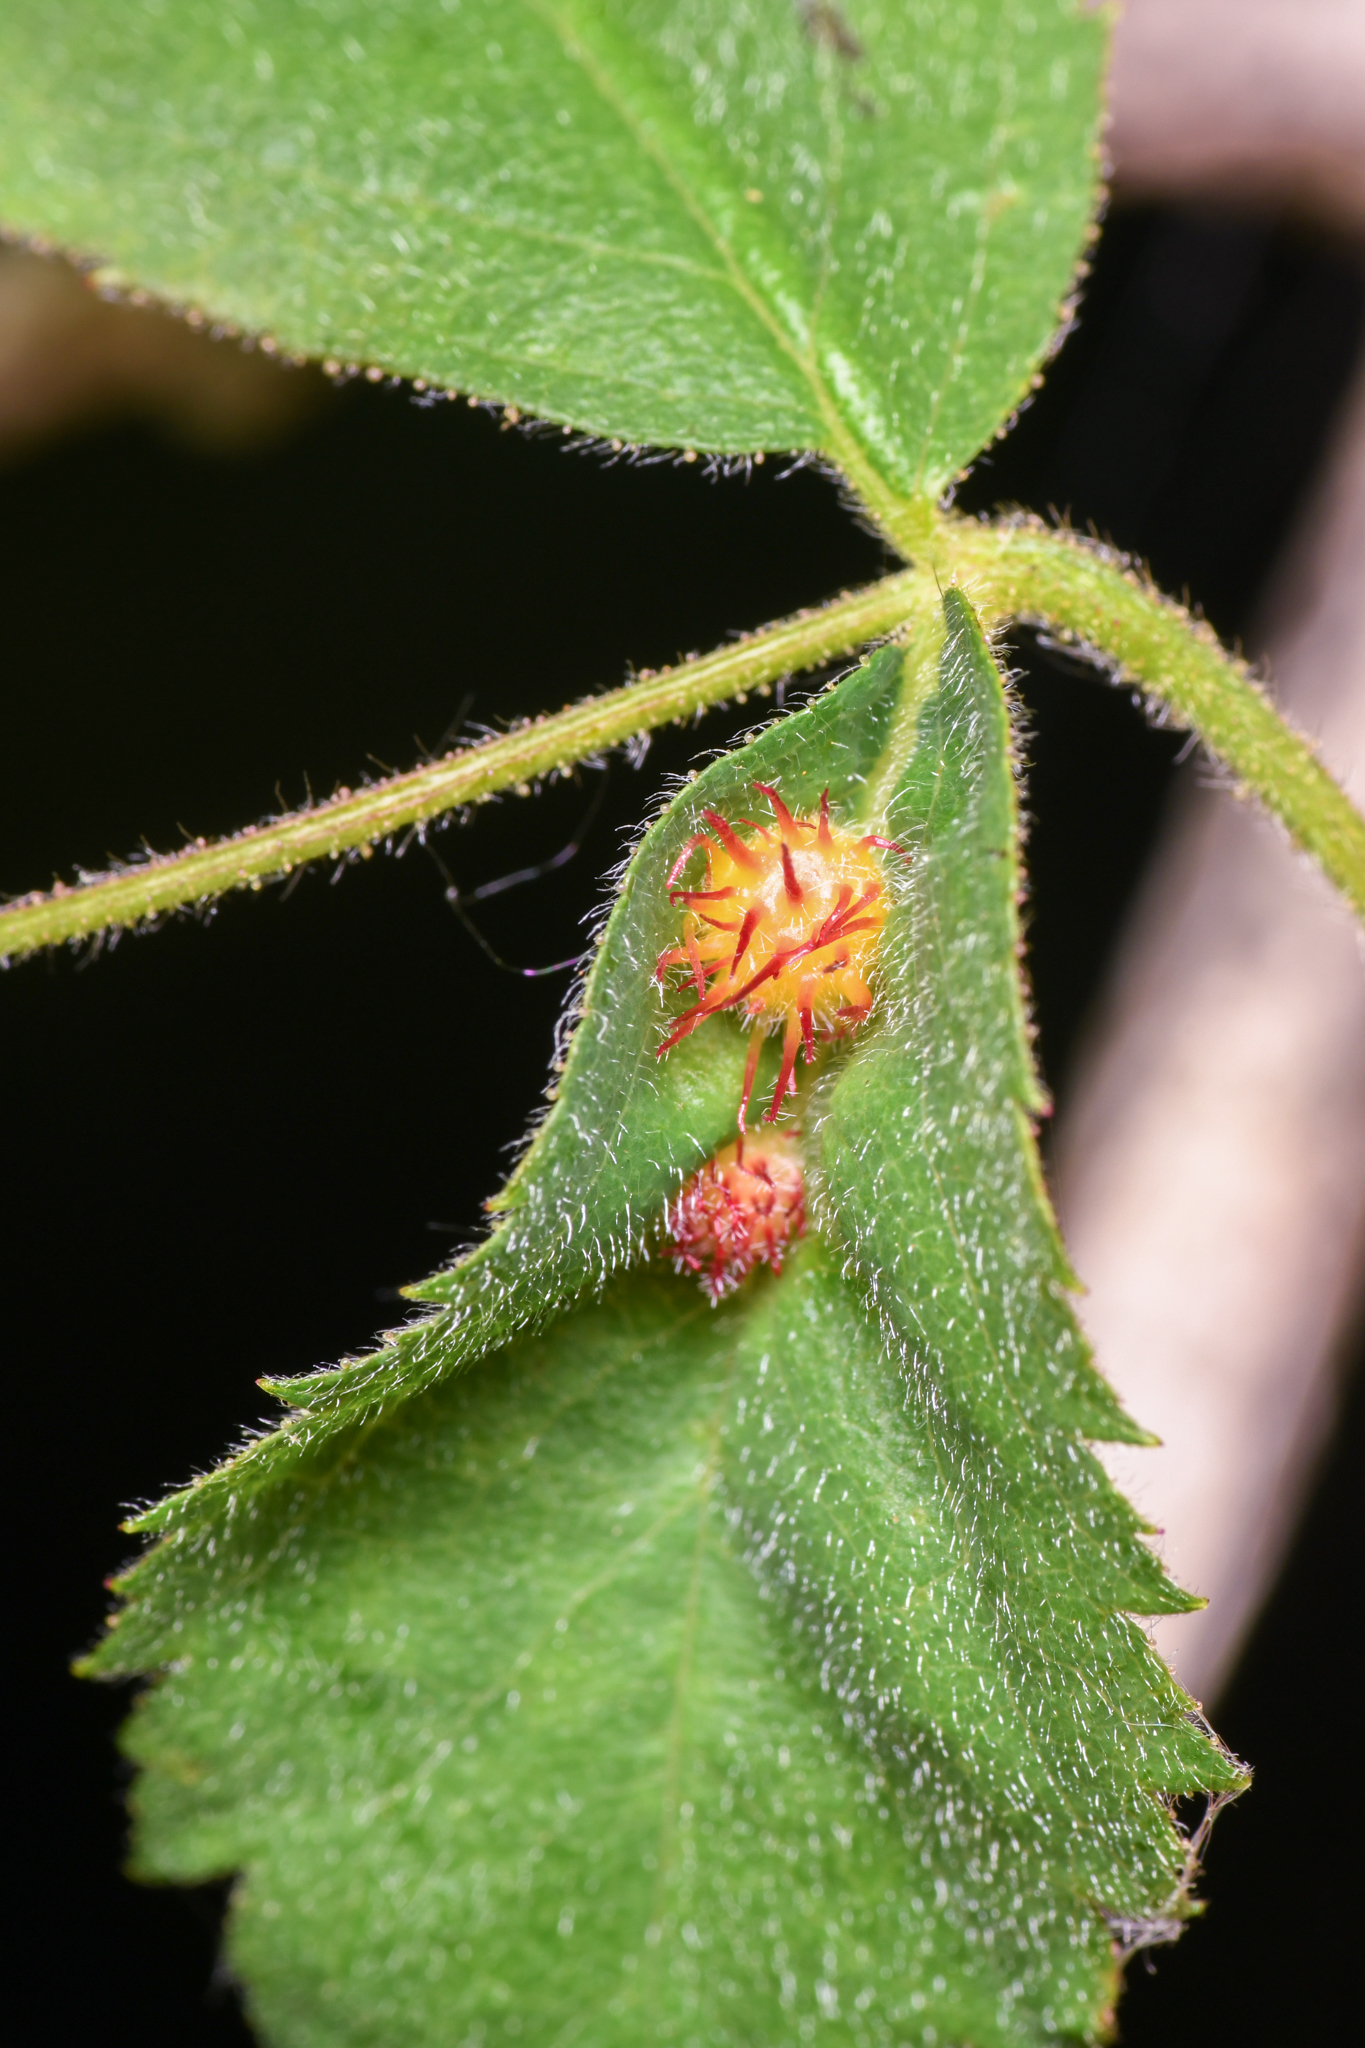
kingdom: Animalia
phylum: Arthropoda
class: Insecta
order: Hymenoptera
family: Cynipidae
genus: Diplolepis
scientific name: Diplolepis polita
